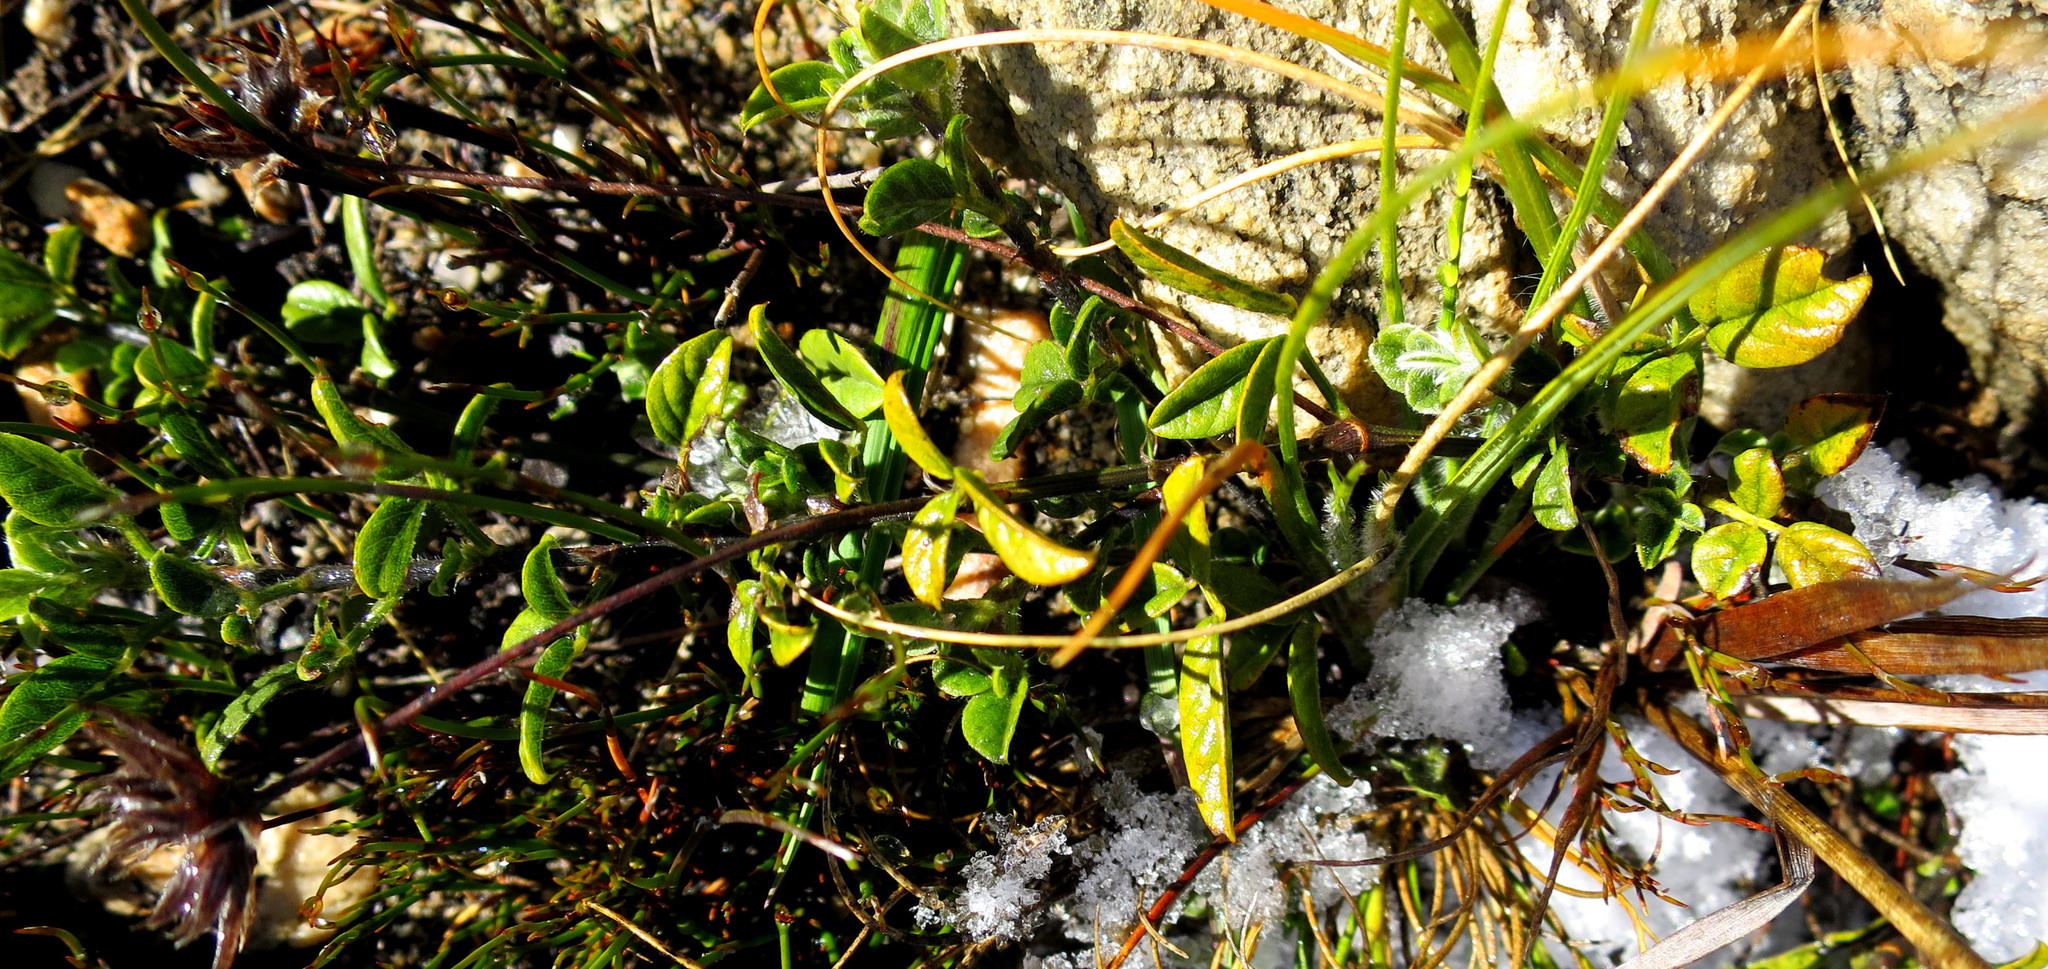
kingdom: Plantae
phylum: Tracheophyta
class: Magnoliopsida
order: Fabales
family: Fabaceae
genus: Psoralea
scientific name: Psoralea swartbergensis
